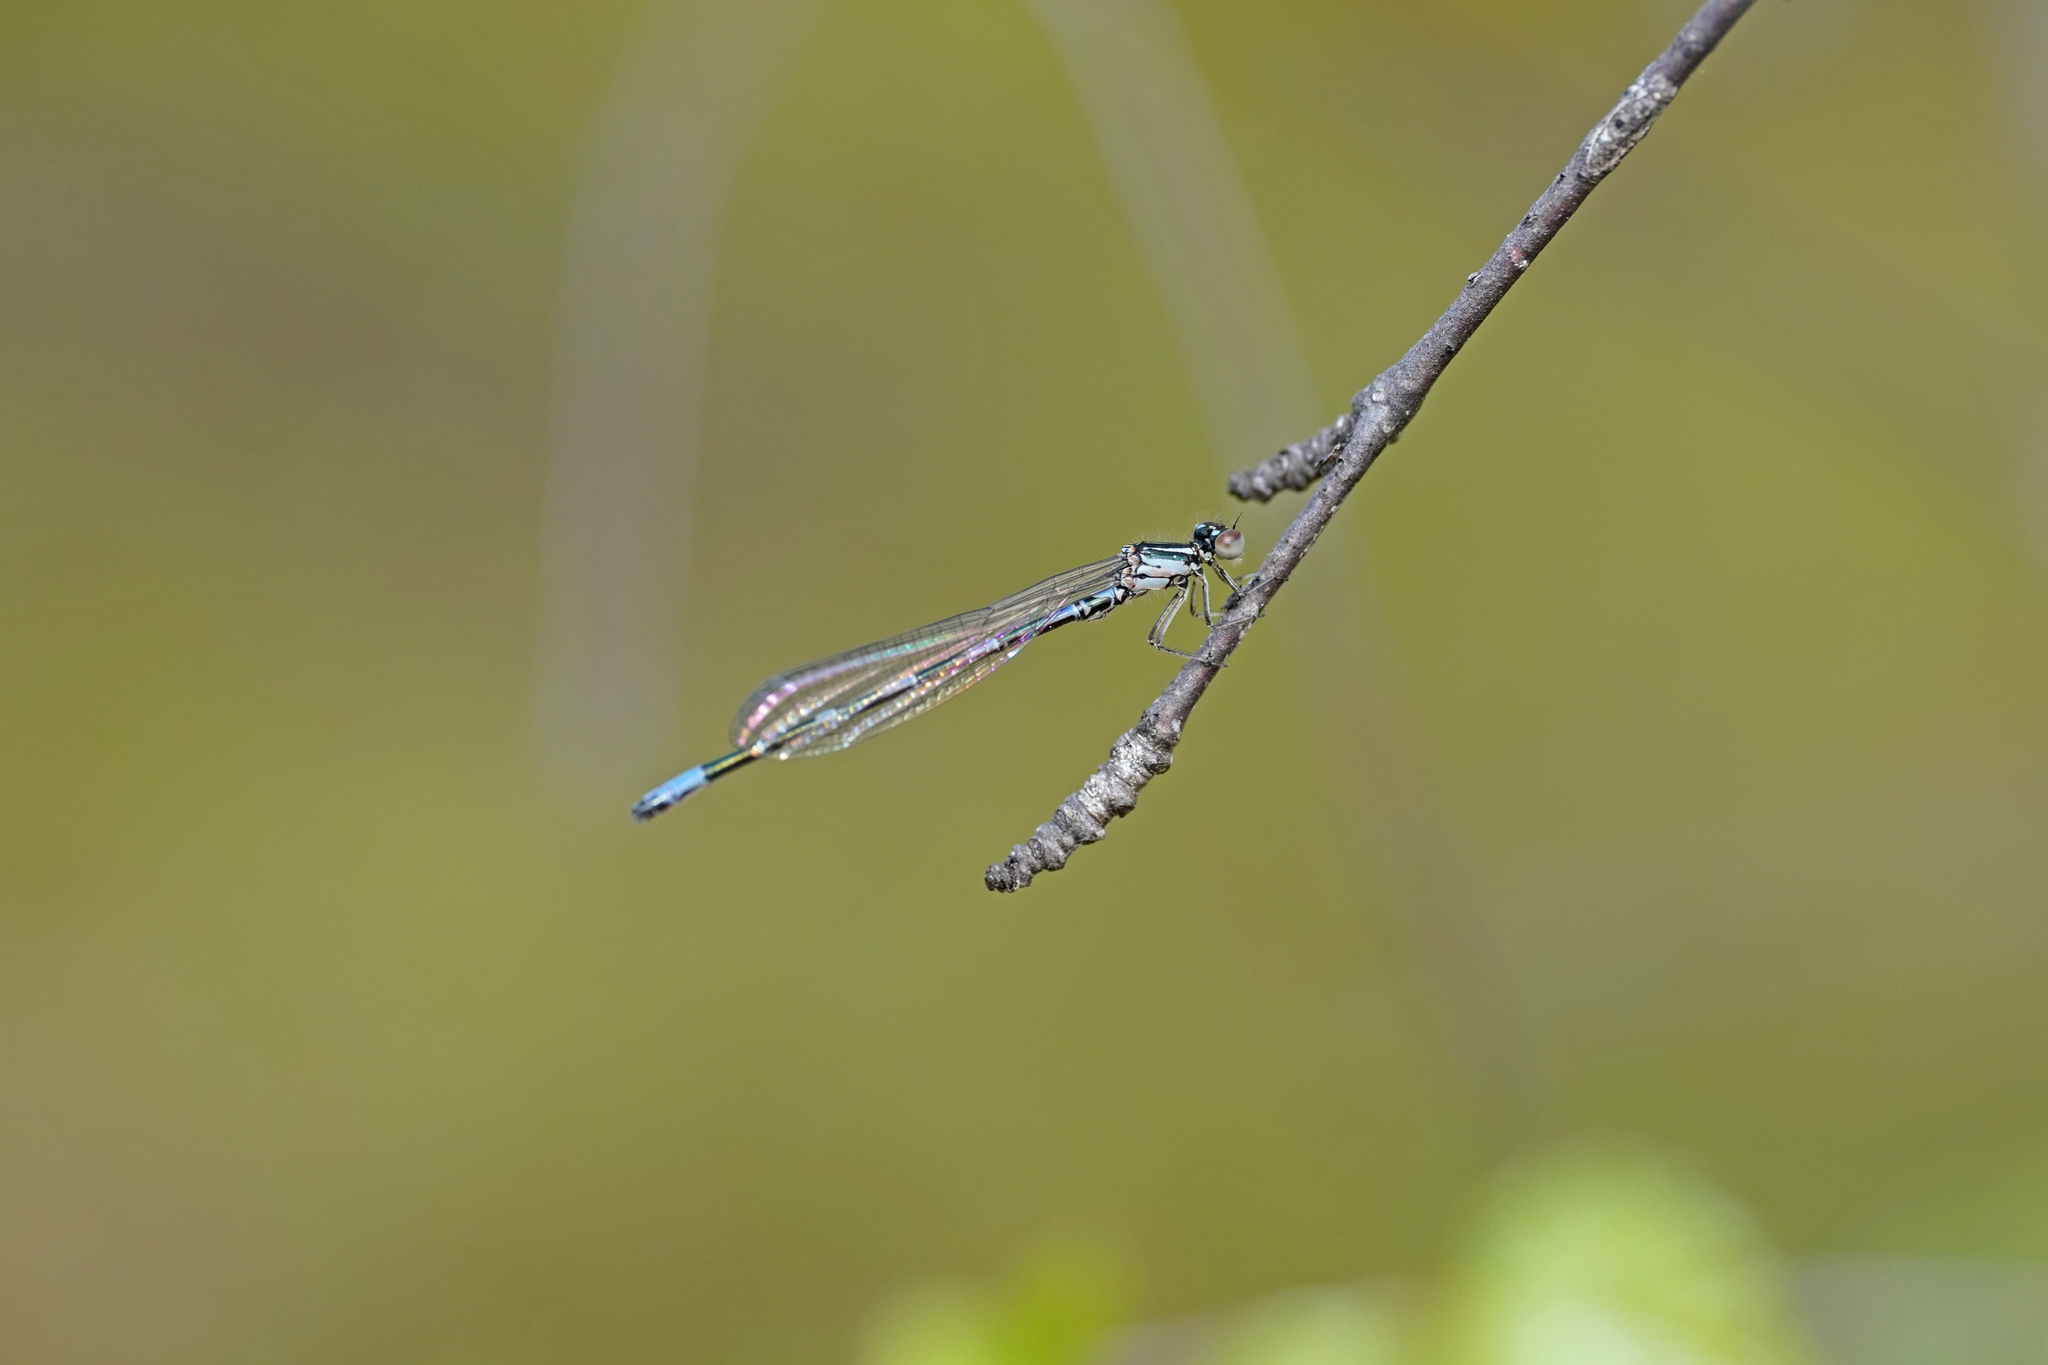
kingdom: Animalia
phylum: Arthropoda
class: Insecta
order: Odonata
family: Coenagrionidae
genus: Coenagrion
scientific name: Coenagrion johanssoni
